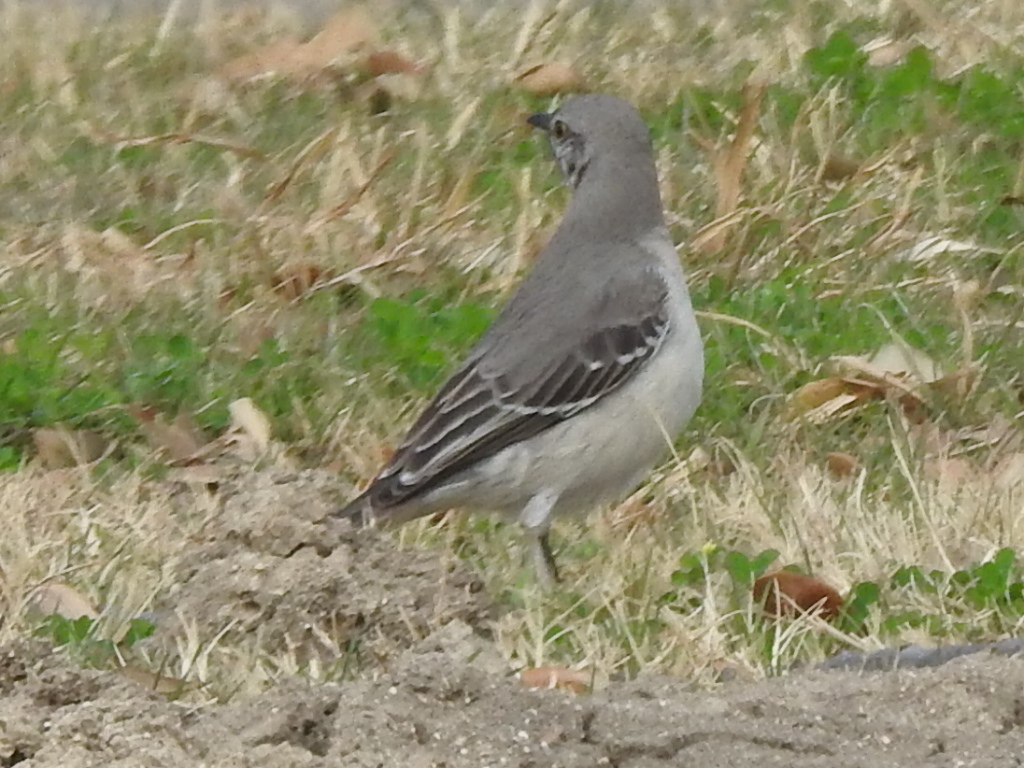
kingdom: Animalia
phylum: Chordata
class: Aves
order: Passeriformes
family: Mimidae
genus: Mimus
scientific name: Mimus polyglottos
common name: Northern mockingbird
